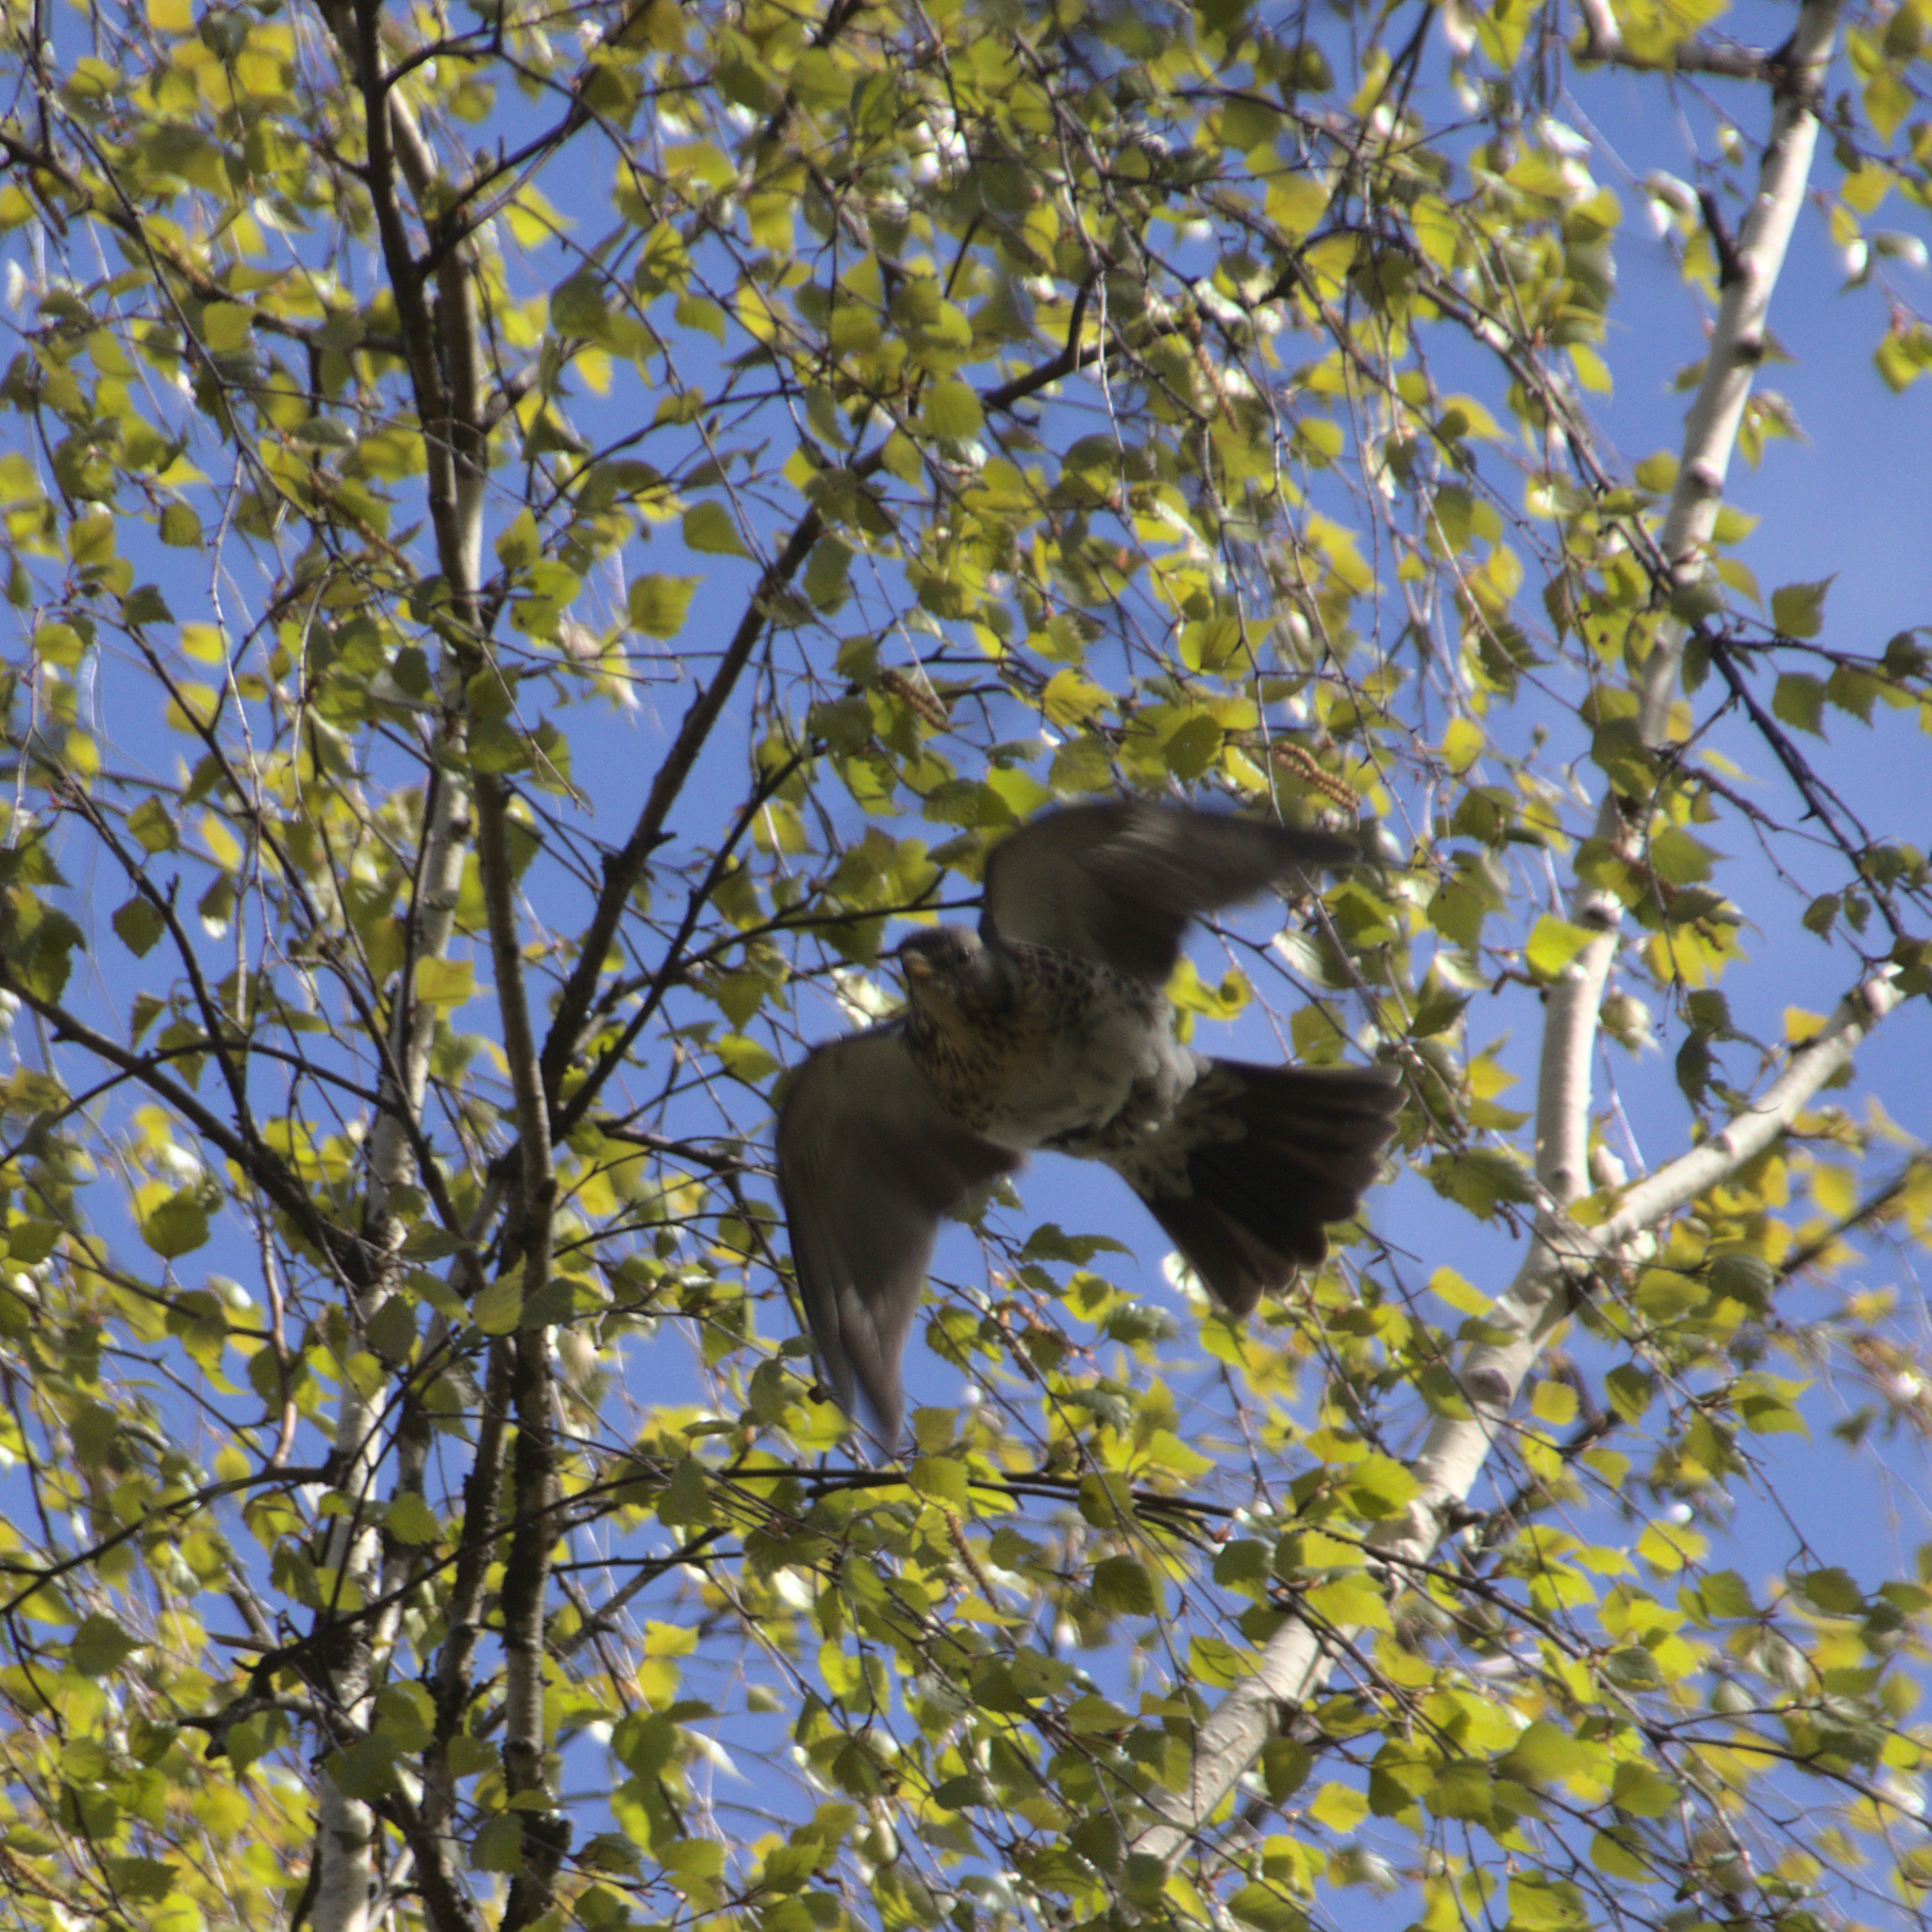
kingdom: Animalia
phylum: Chordata
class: Aves
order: Passeriformes
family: Turdidae
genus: Turdus
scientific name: Turdus pilaris
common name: Fieldfare
